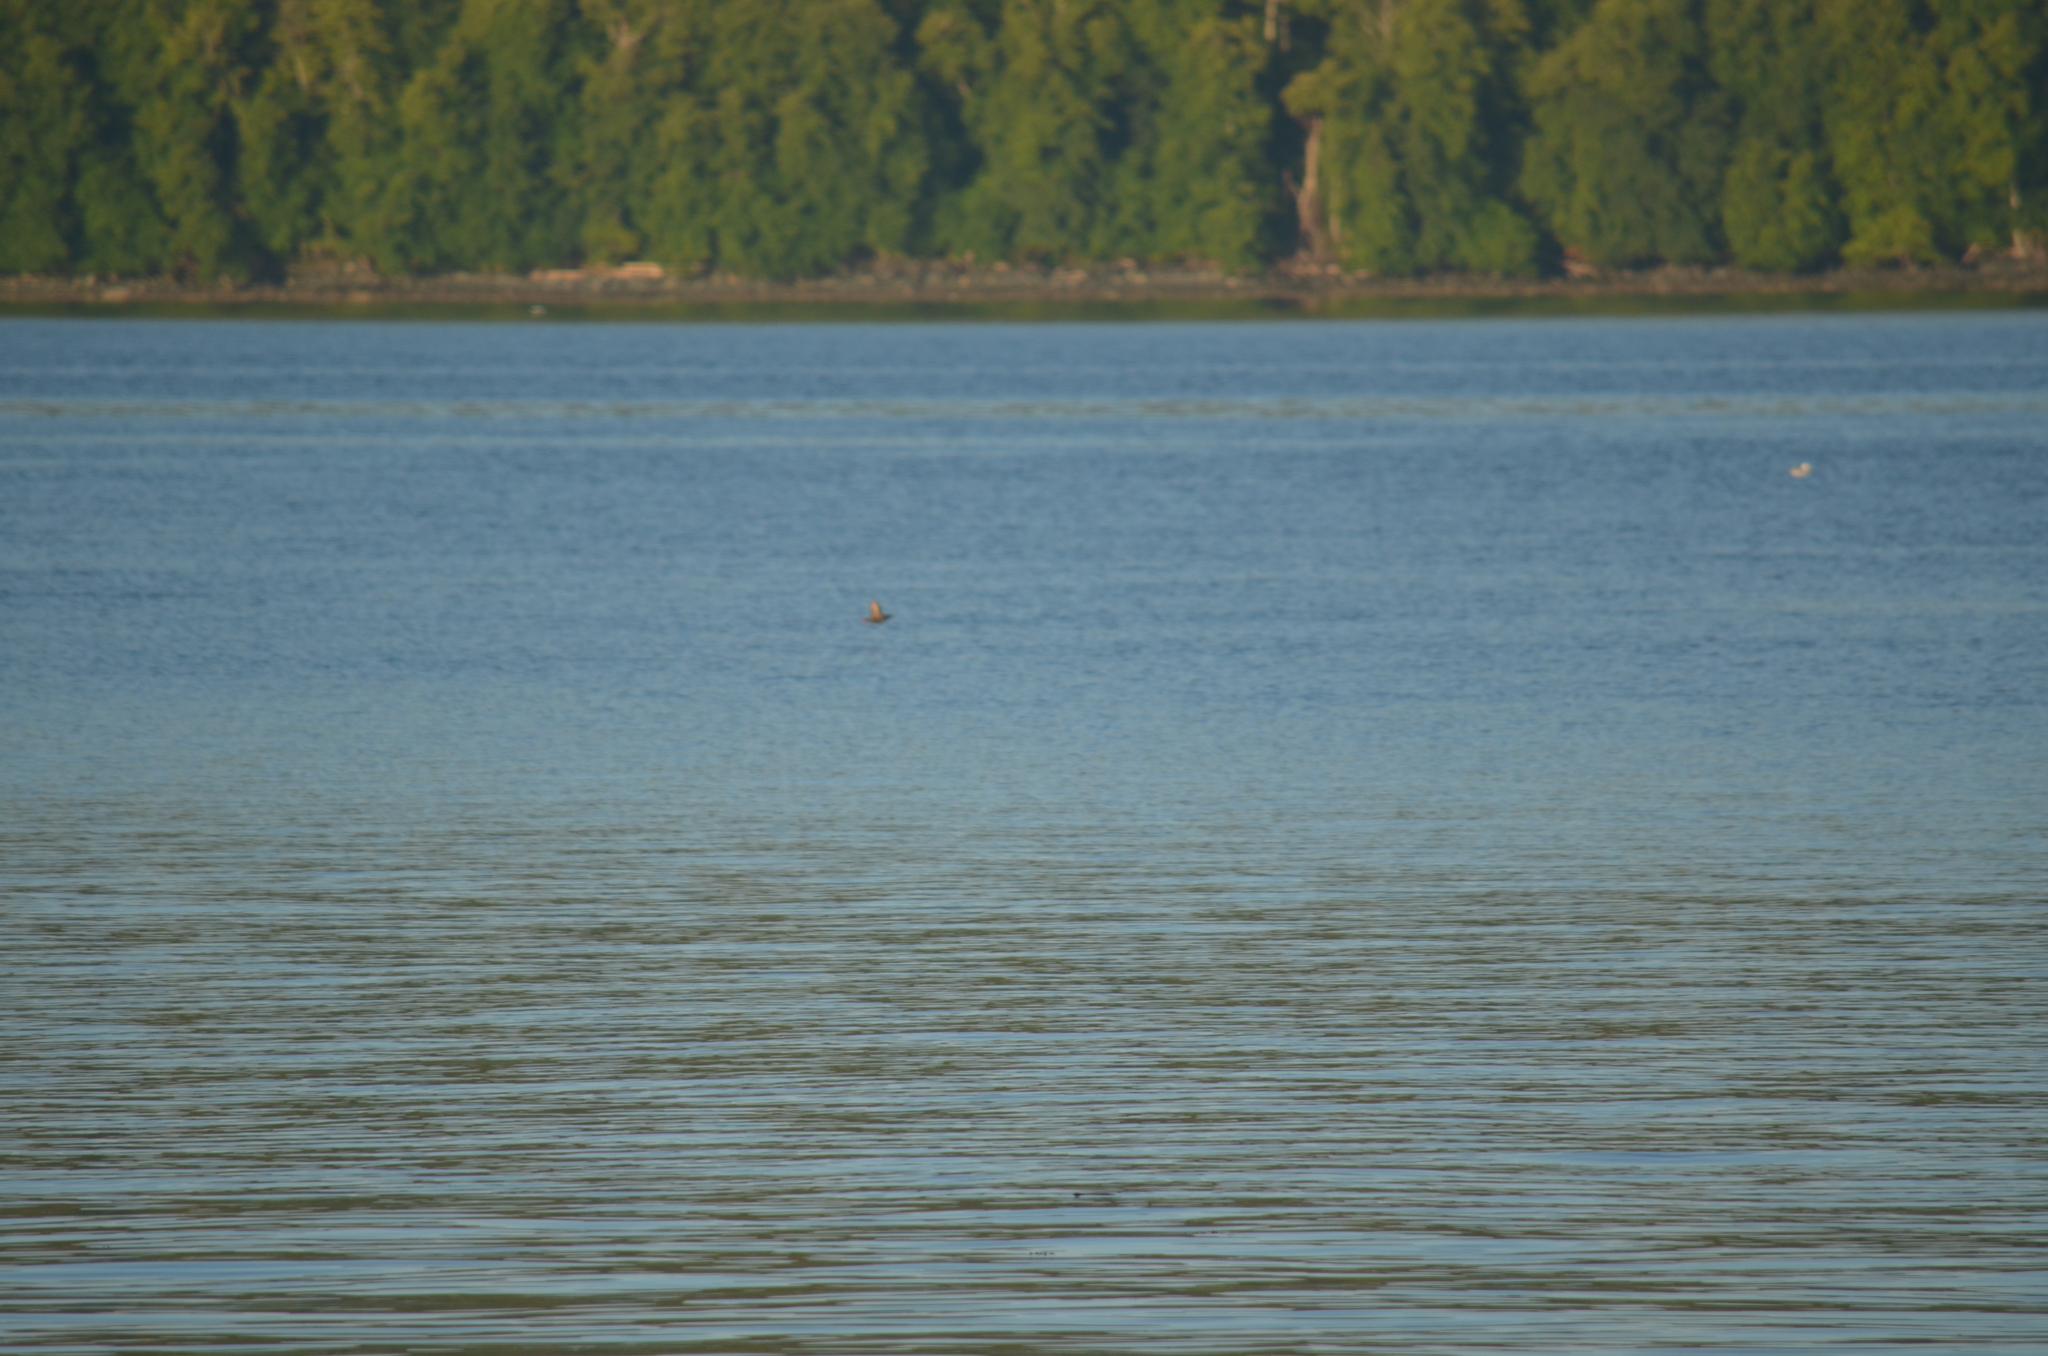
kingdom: Animalia
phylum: Chordata
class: Aves
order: Charadriiformes
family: Alcidae
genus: Cepphus
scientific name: Cepphus columba
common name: Pigeon guillemot
